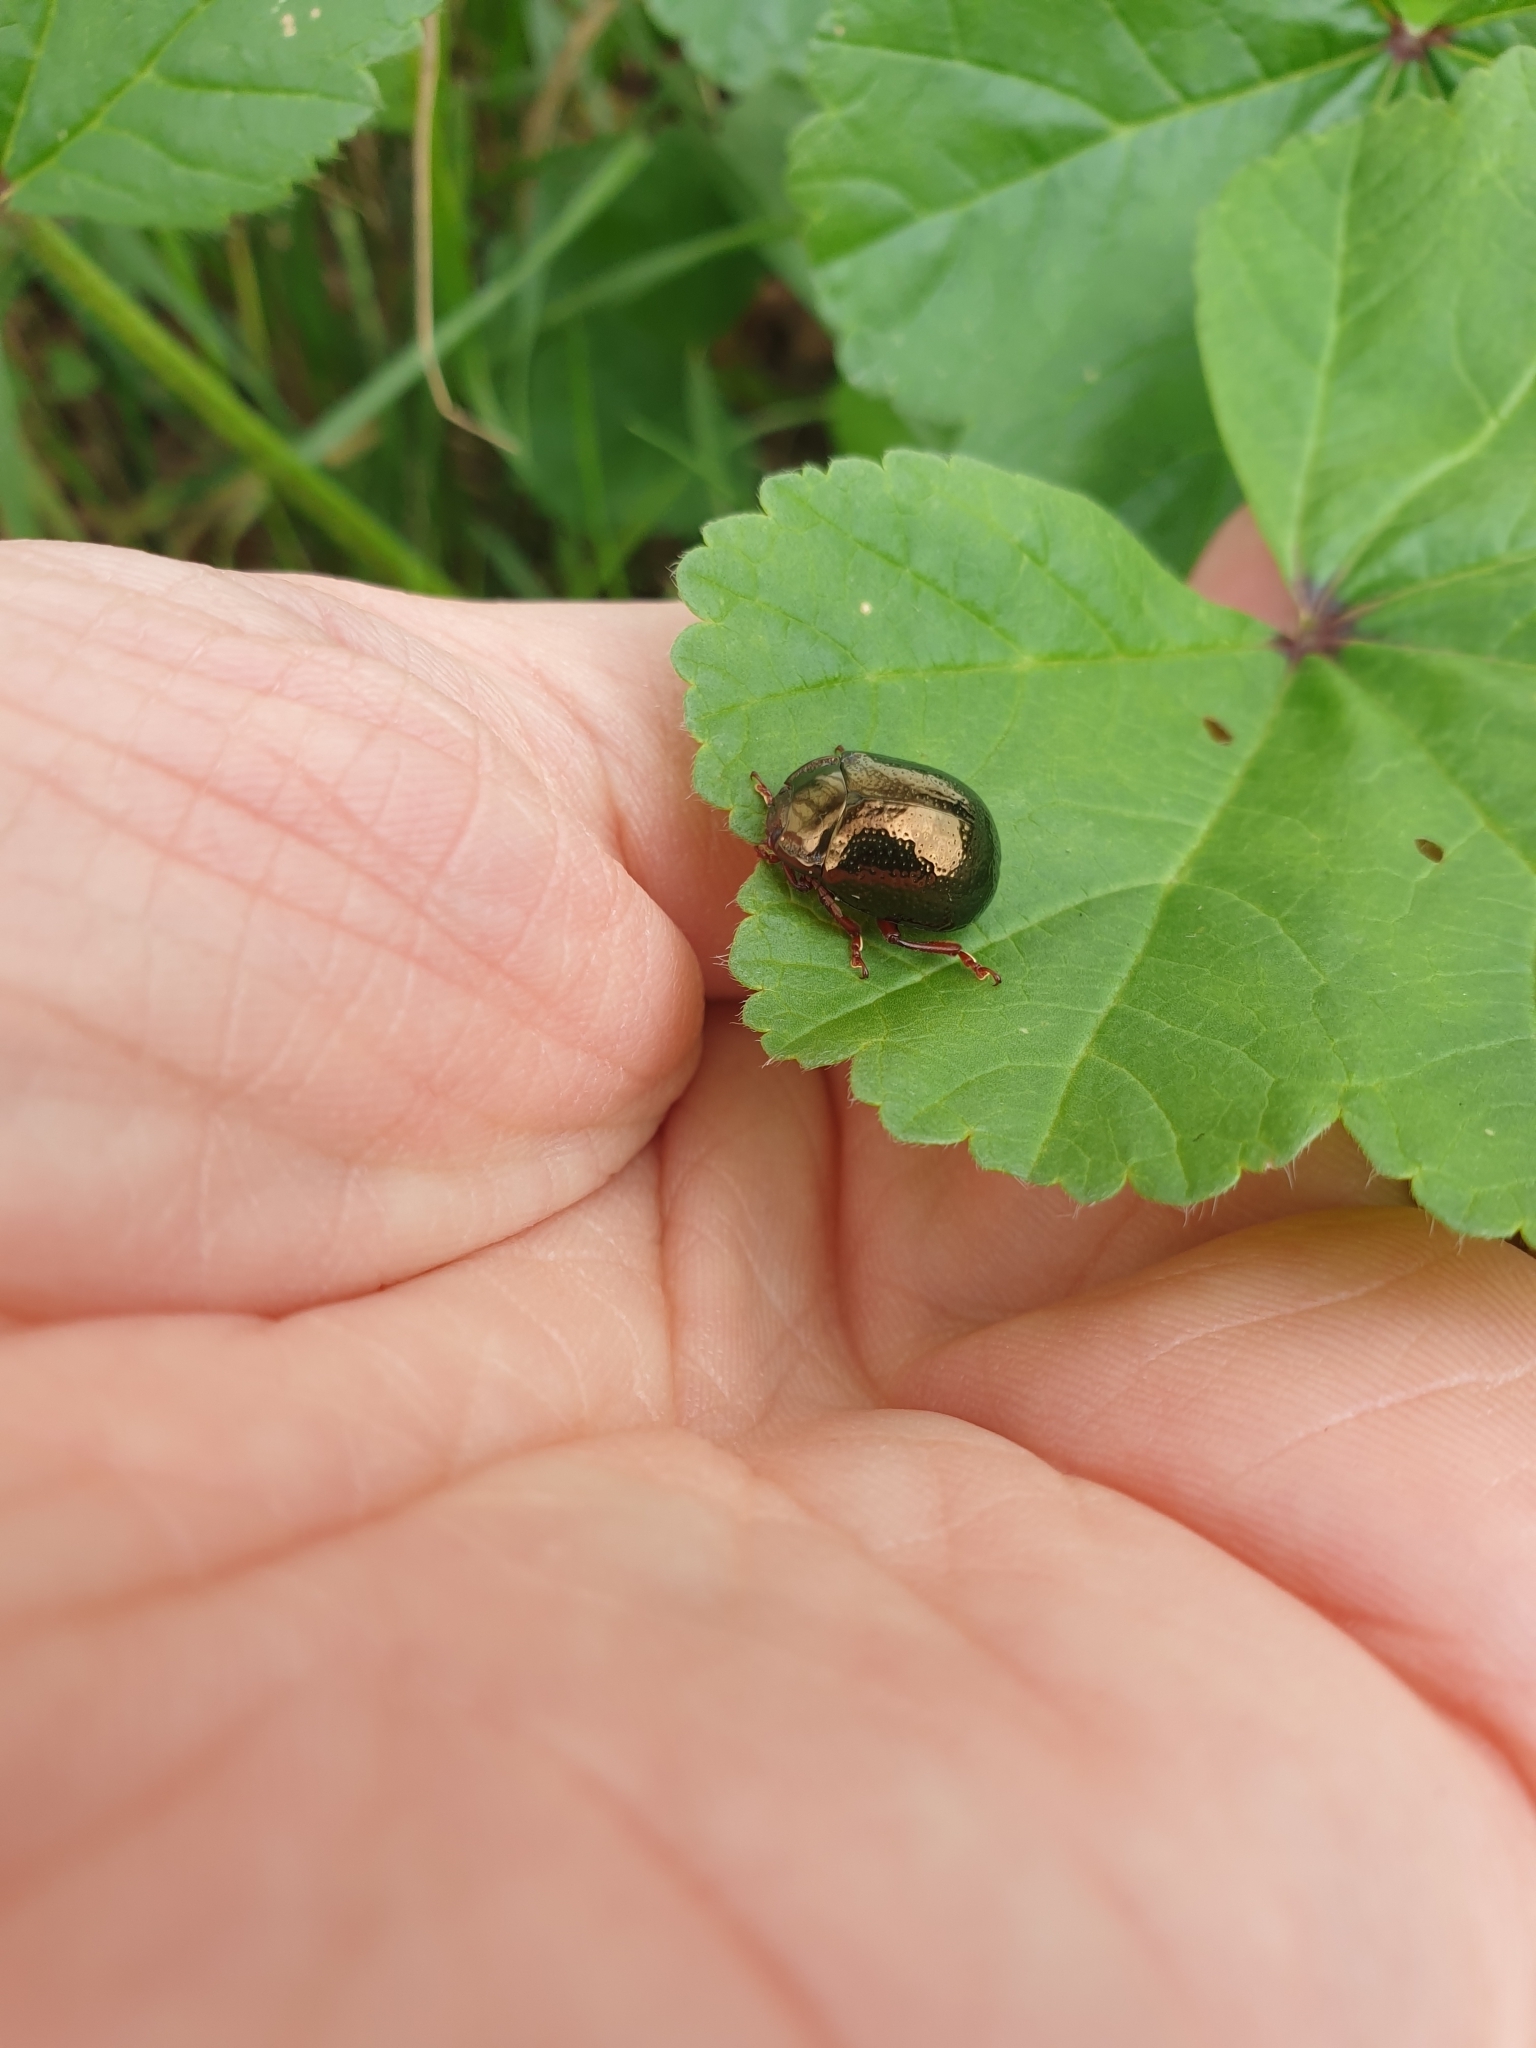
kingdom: Animalia
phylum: Arthropoda
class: Insecta
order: Coleoptera
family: Chrysomelidae
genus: Chrysolina
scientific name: Chrysolina bankii
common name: Leaf beetle
